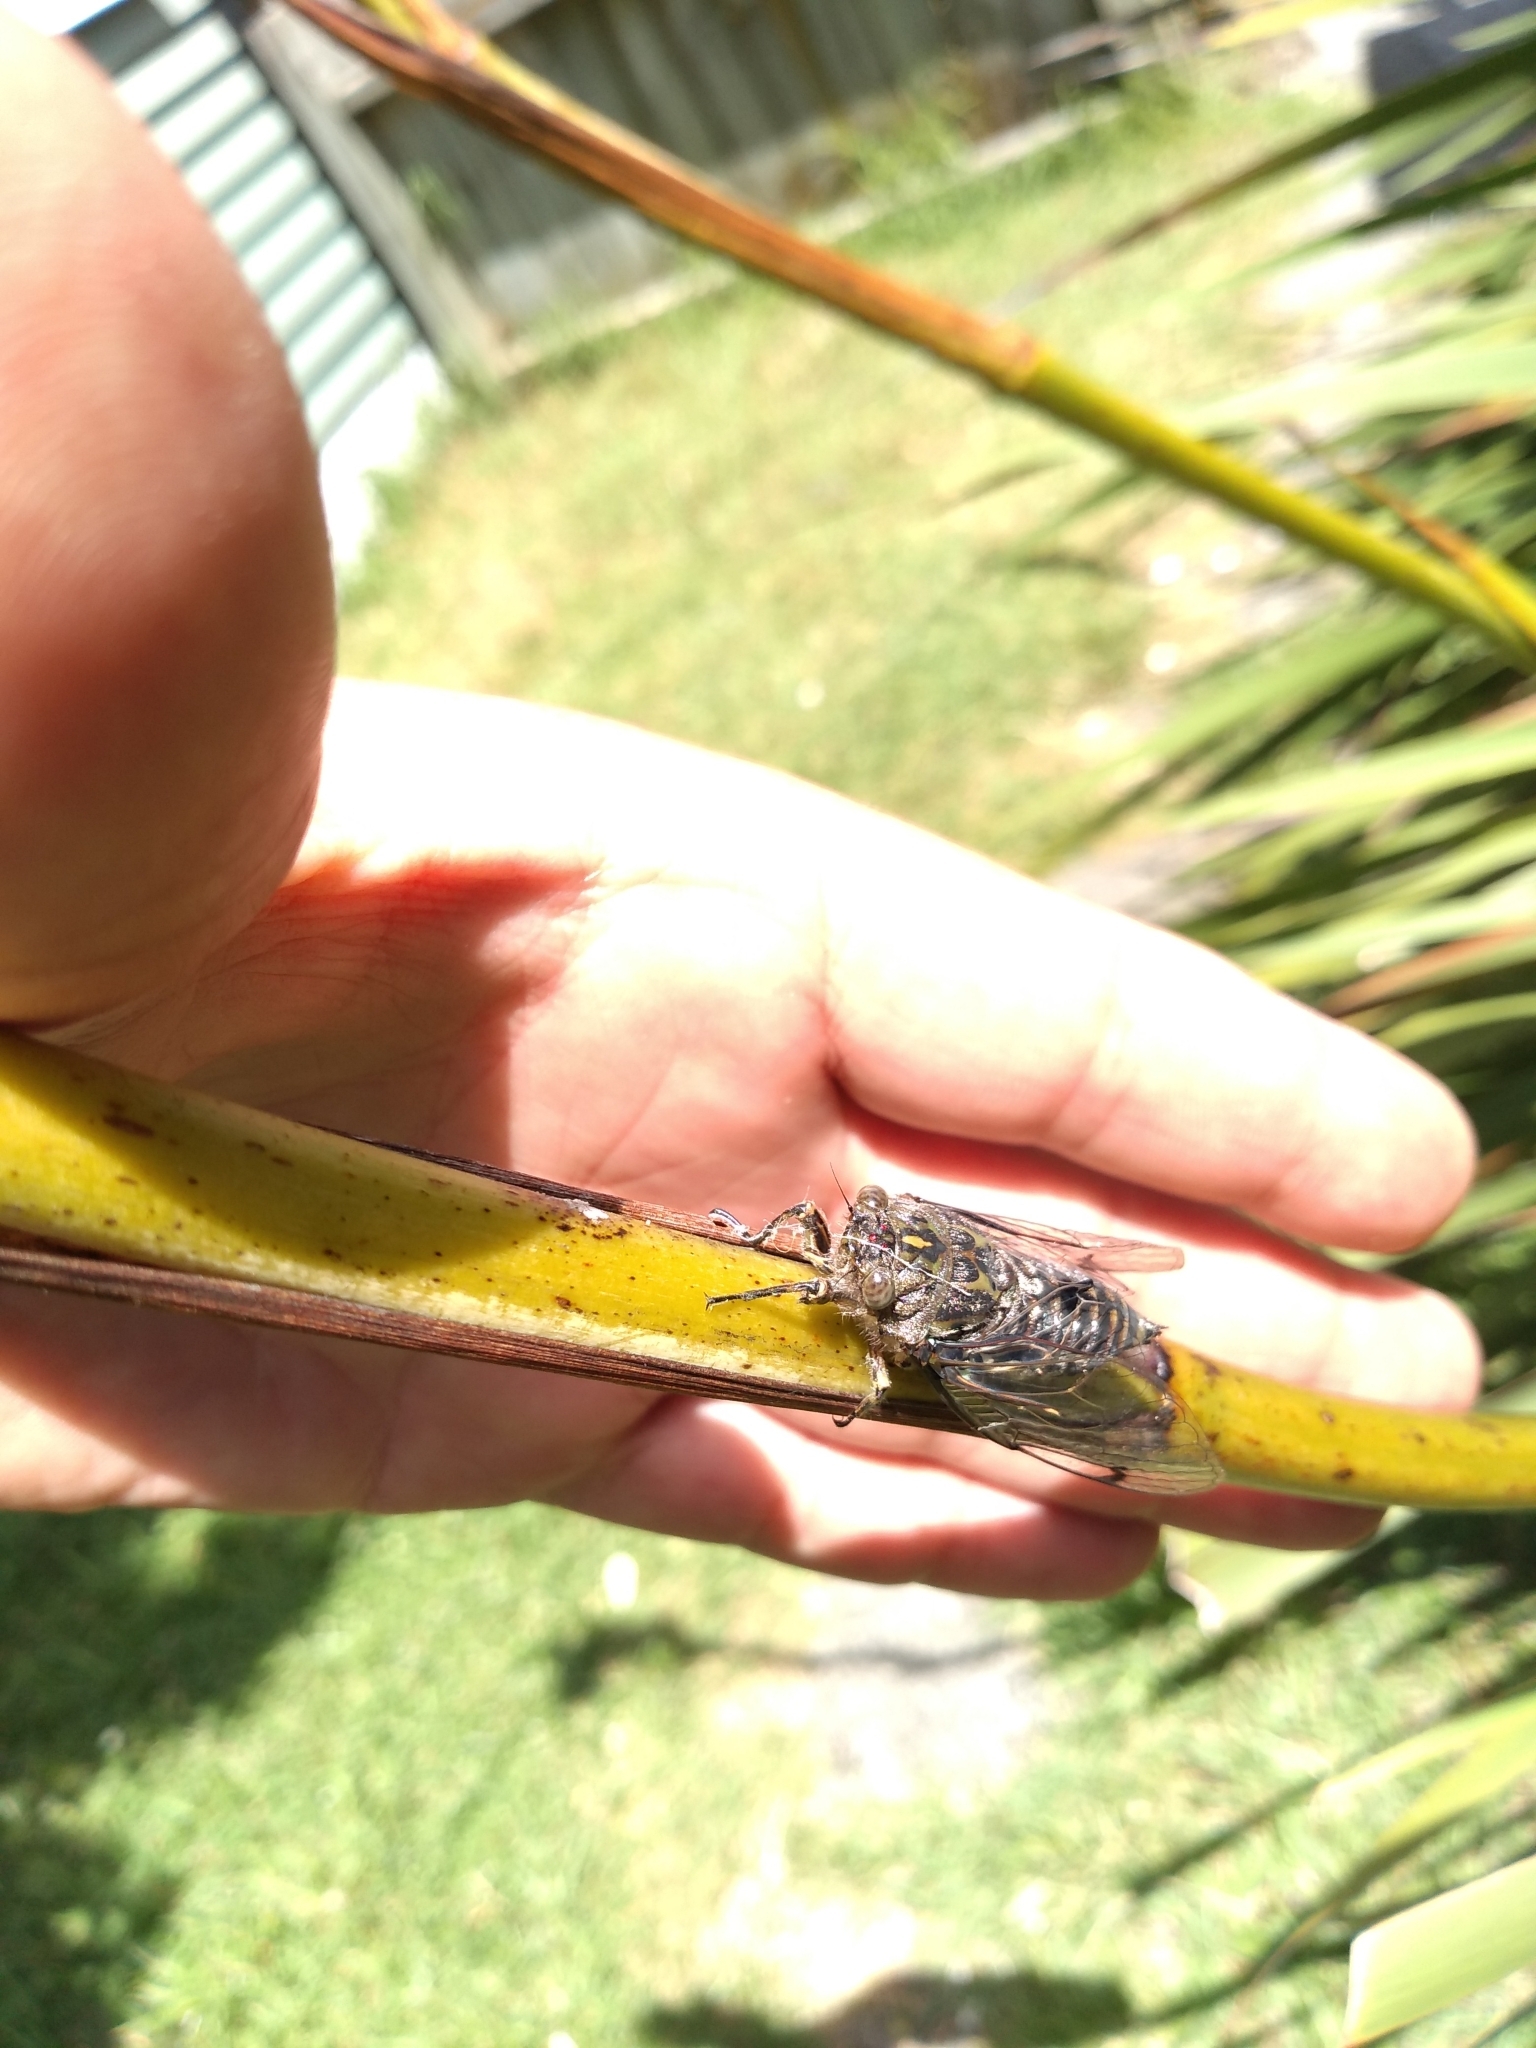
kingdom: Animalia
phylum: Arthropoda
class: Insecta
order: Hemiptera
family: Cicadidae
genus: Amphipsalta
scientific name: Amphipsalta cingulata
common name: Clapping cicada
